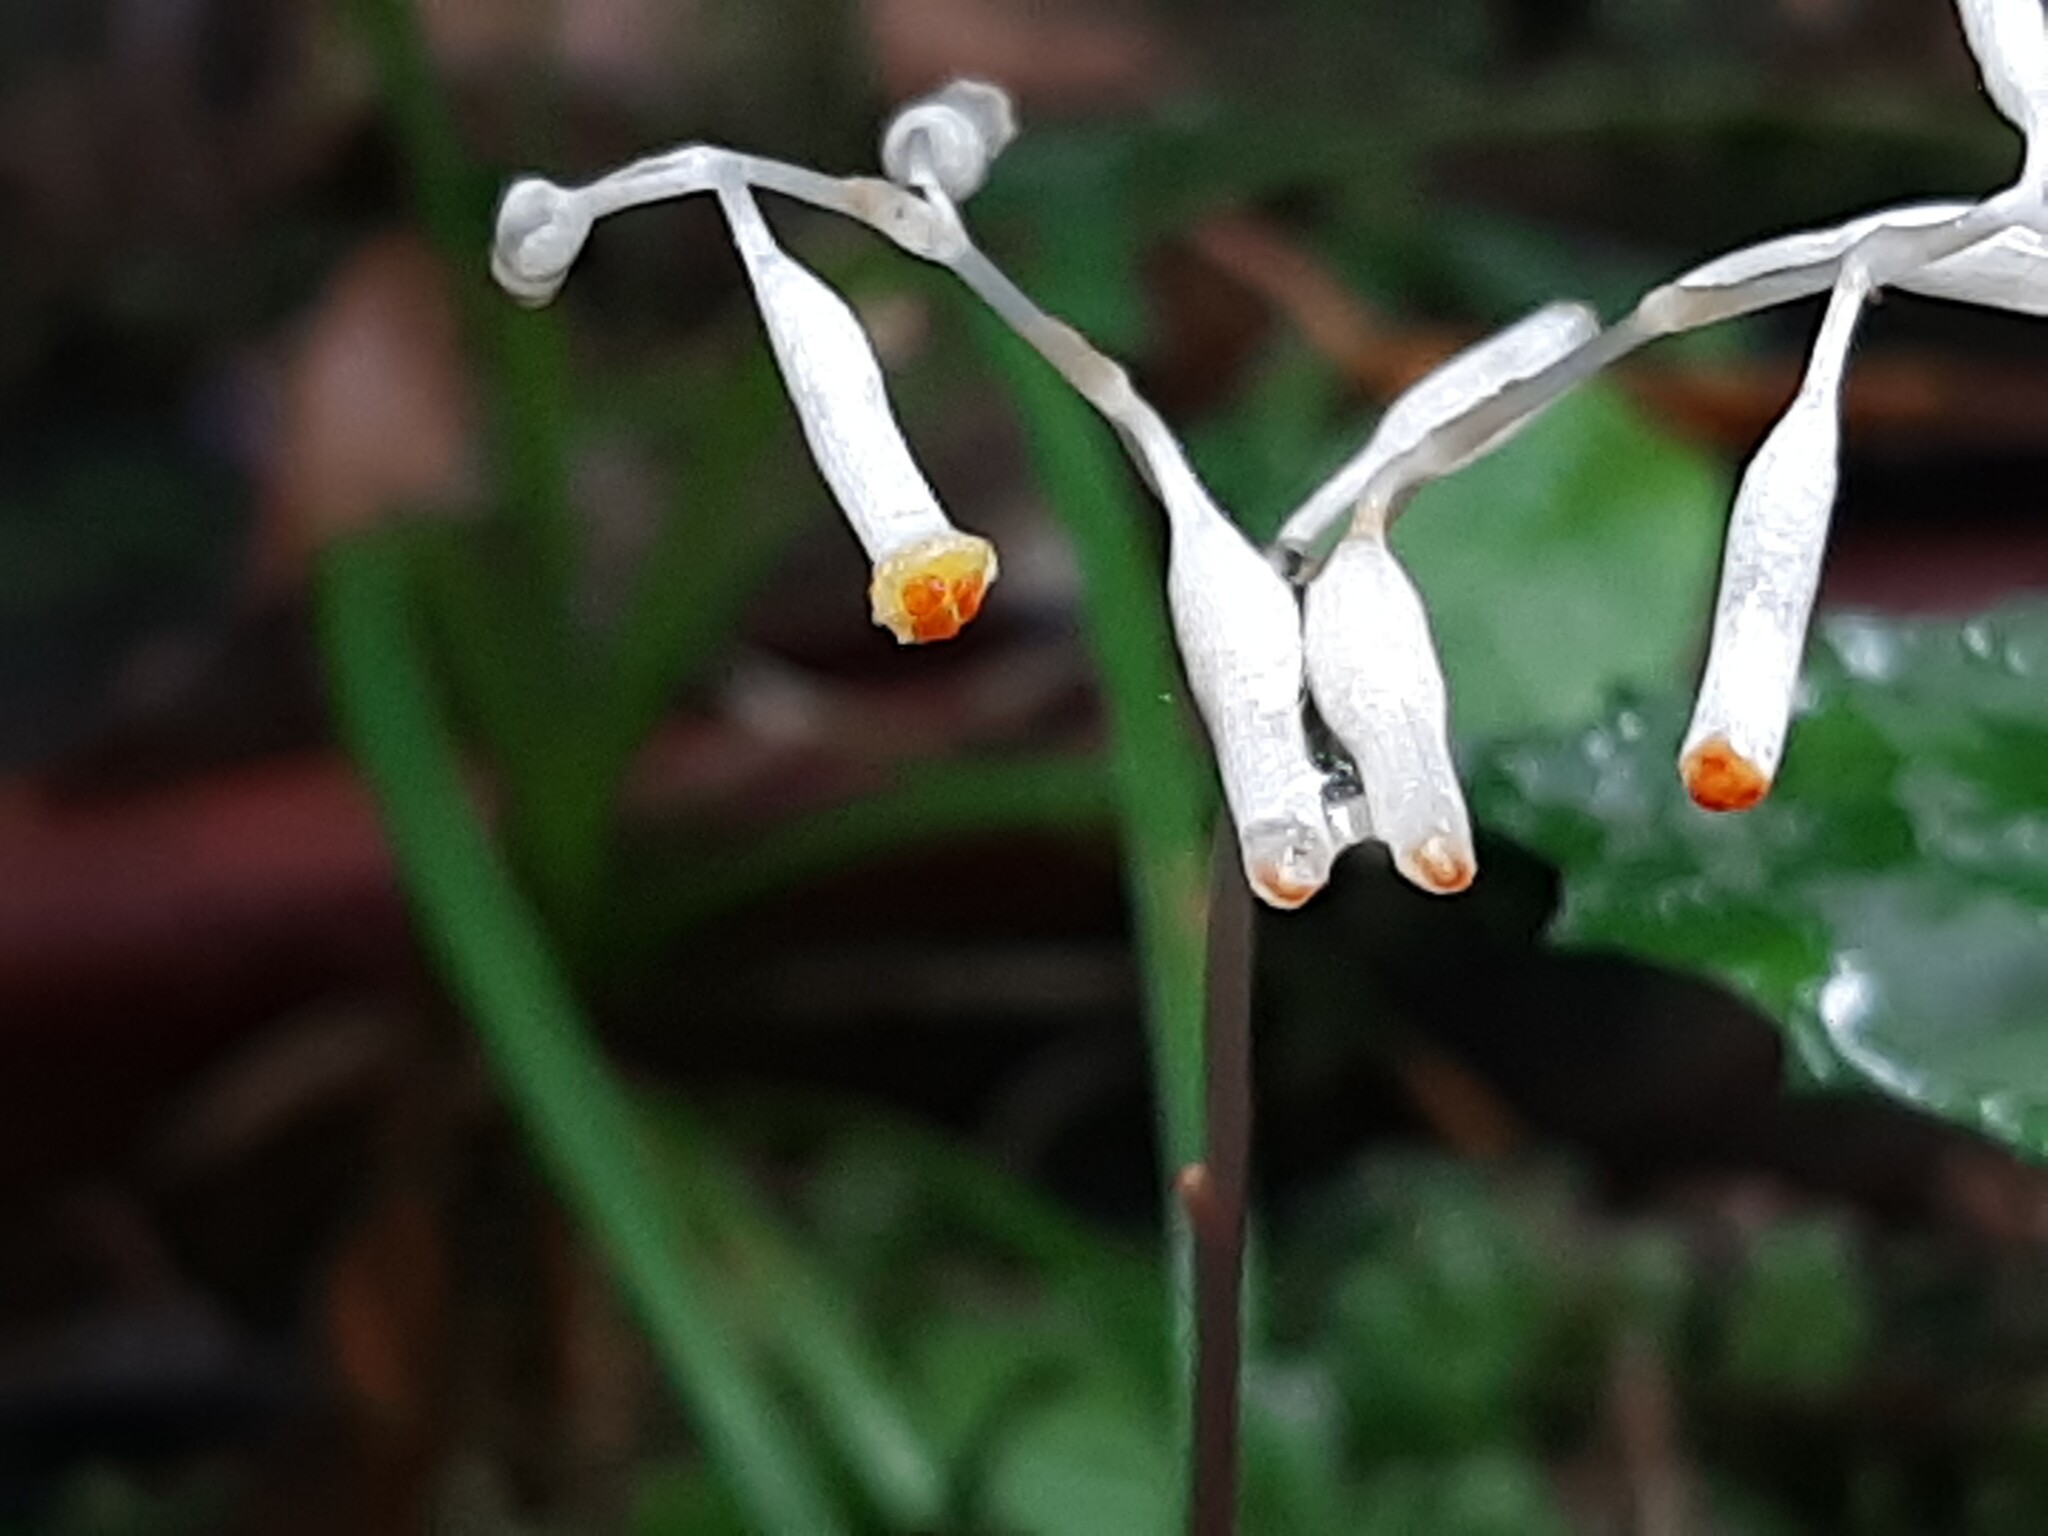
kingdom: Plantae
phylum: Tracheophyta
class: Liliopsida
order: Dioscoreales
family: Burmanniaceae
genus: Gymnosiphon
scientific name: Gymnosiphon suaveolens
